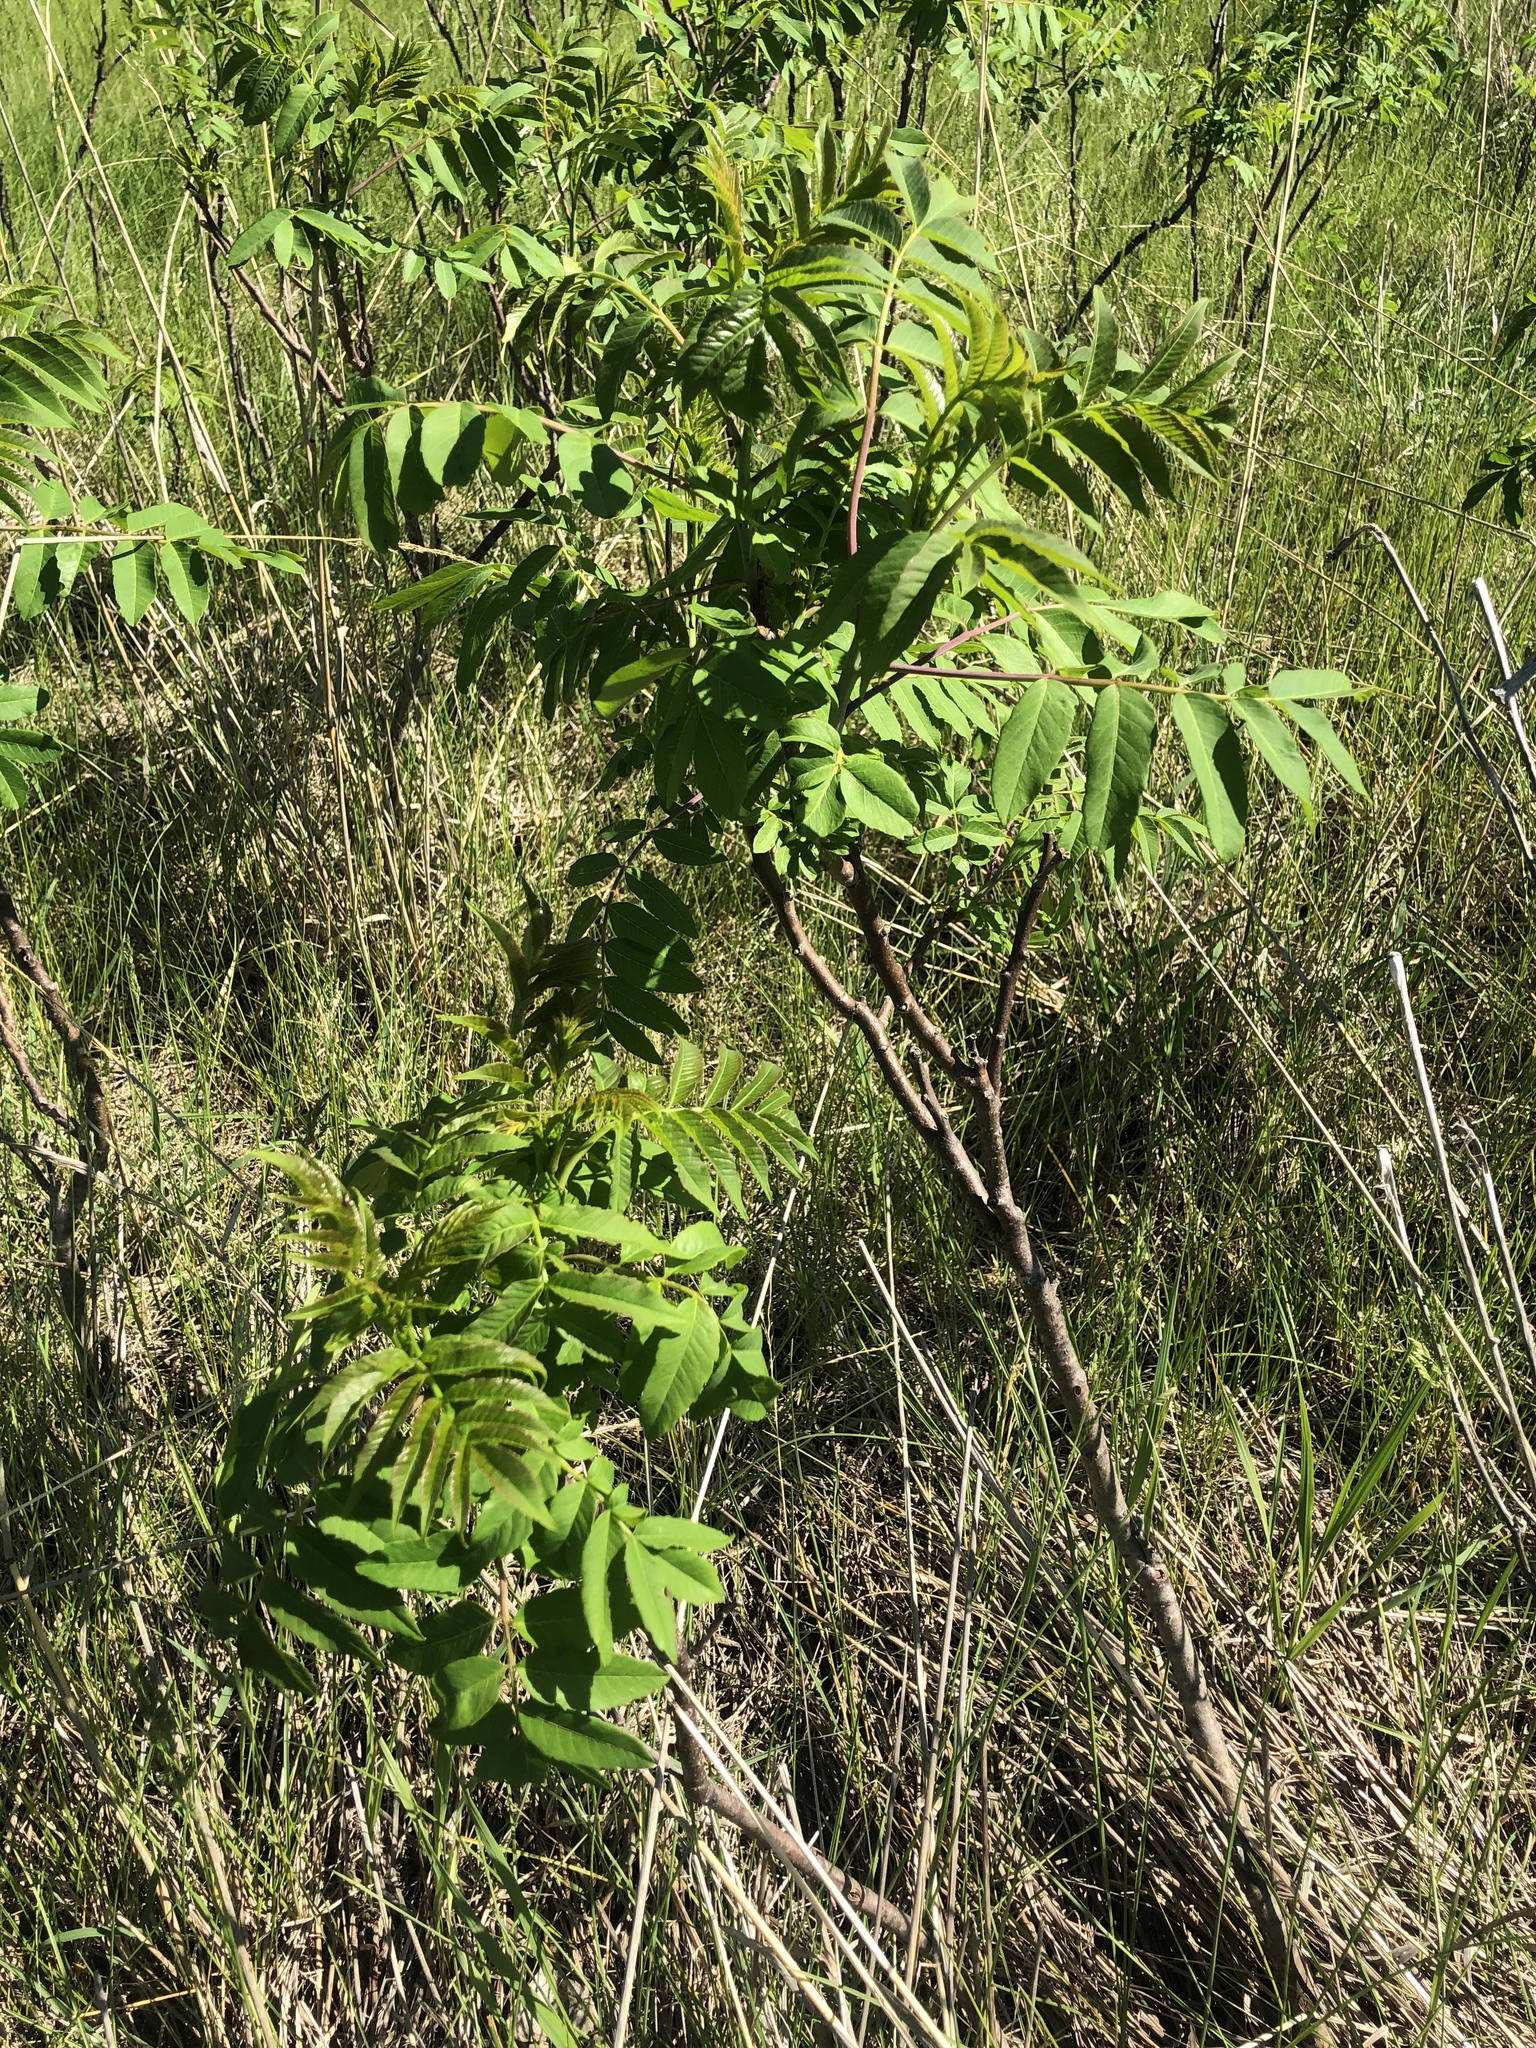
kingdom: Plantae
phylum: Tracheophyta
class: Magnoliopsida
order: Sapindales
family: Anacardiaceae
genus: Rhus
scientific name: Rhus glabra
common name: Scarlet sumac
